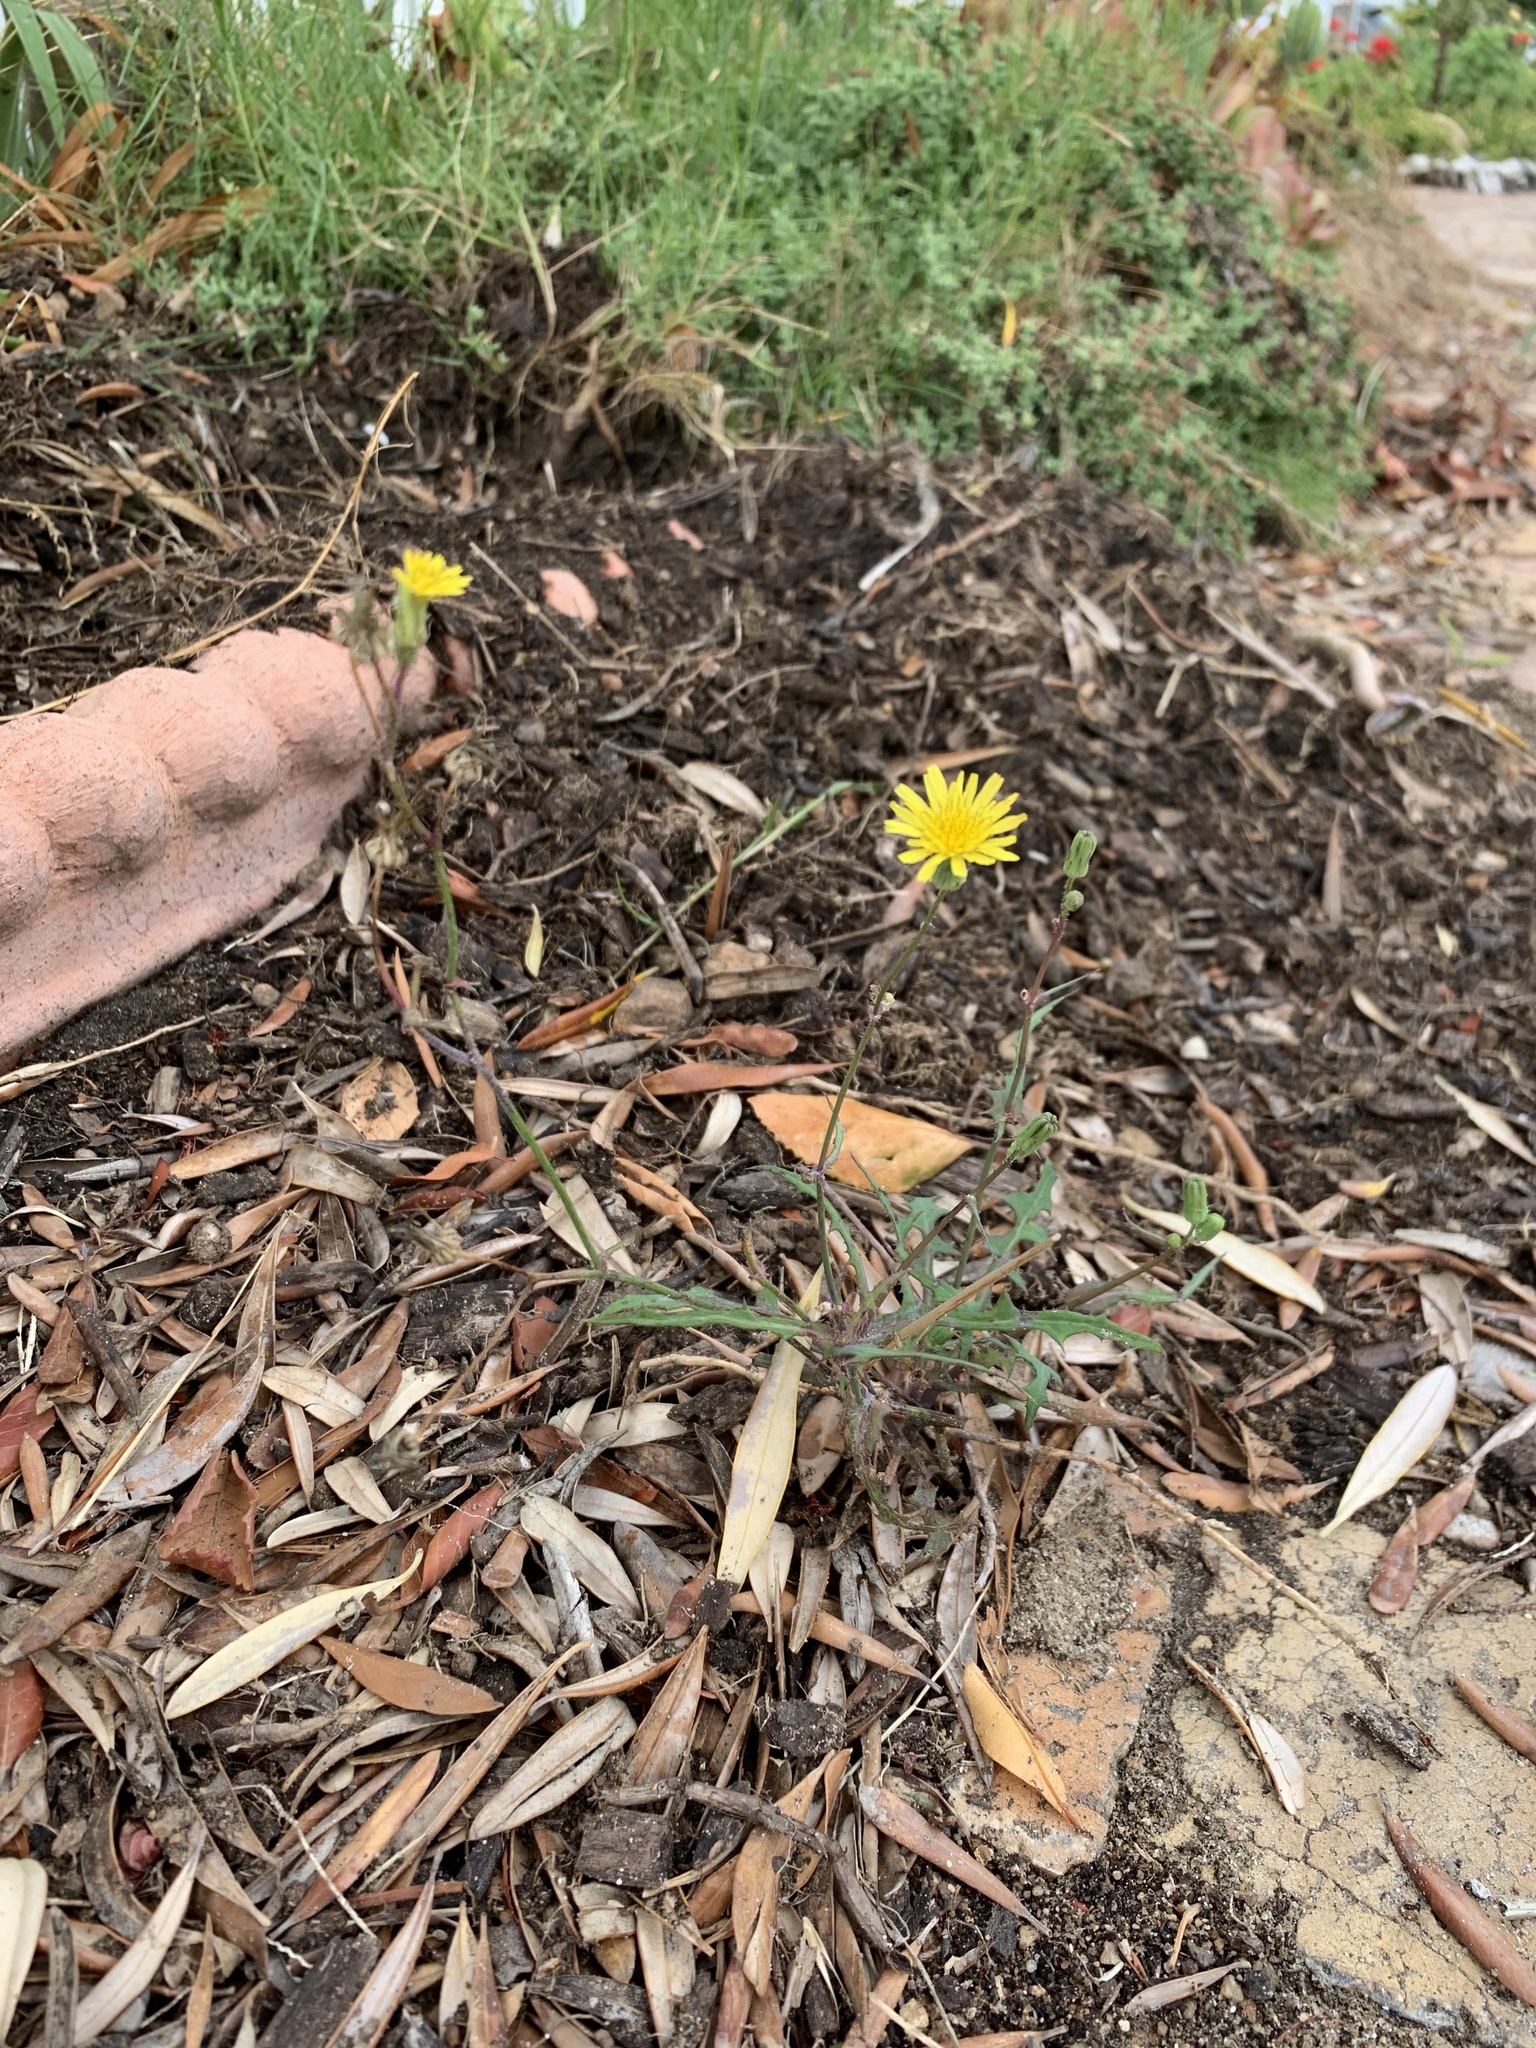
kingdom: Plantae
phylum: Tracheophyta
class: Magnoliopsida
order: Asterales
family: Asteraceae
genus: Sonchus
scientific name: Sonchus oleraceus
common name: Common sowthistle
